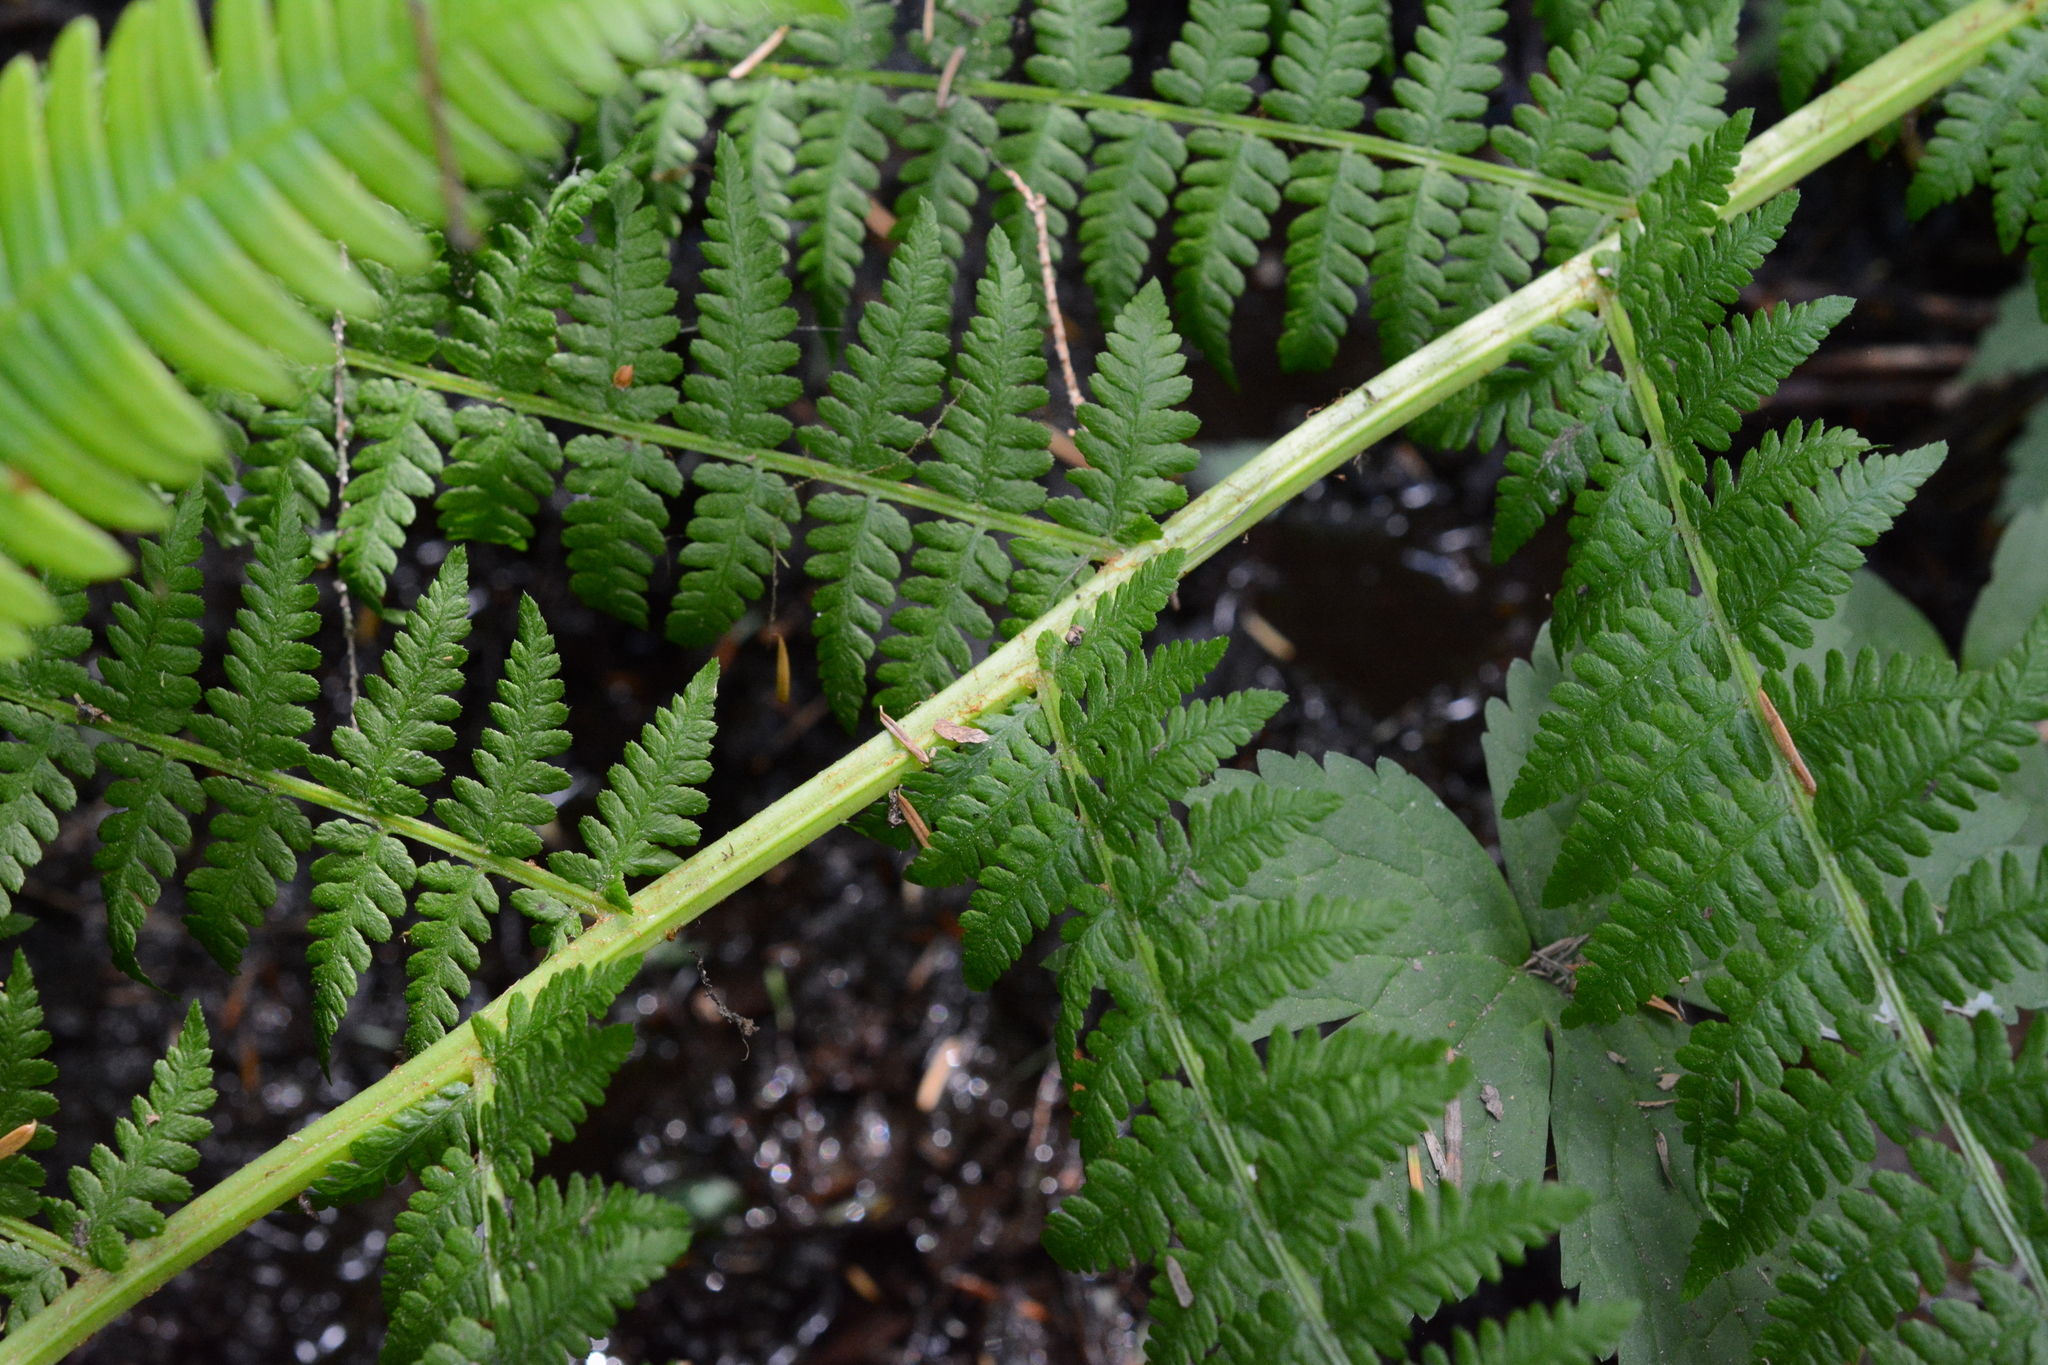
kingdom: Plantae
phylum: Tracheophyta
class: Polypodiopsida
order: Polypodiales
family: Athyriaceae
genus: Athyrium
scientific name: Athyrium filix-femina
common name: Lady fern
